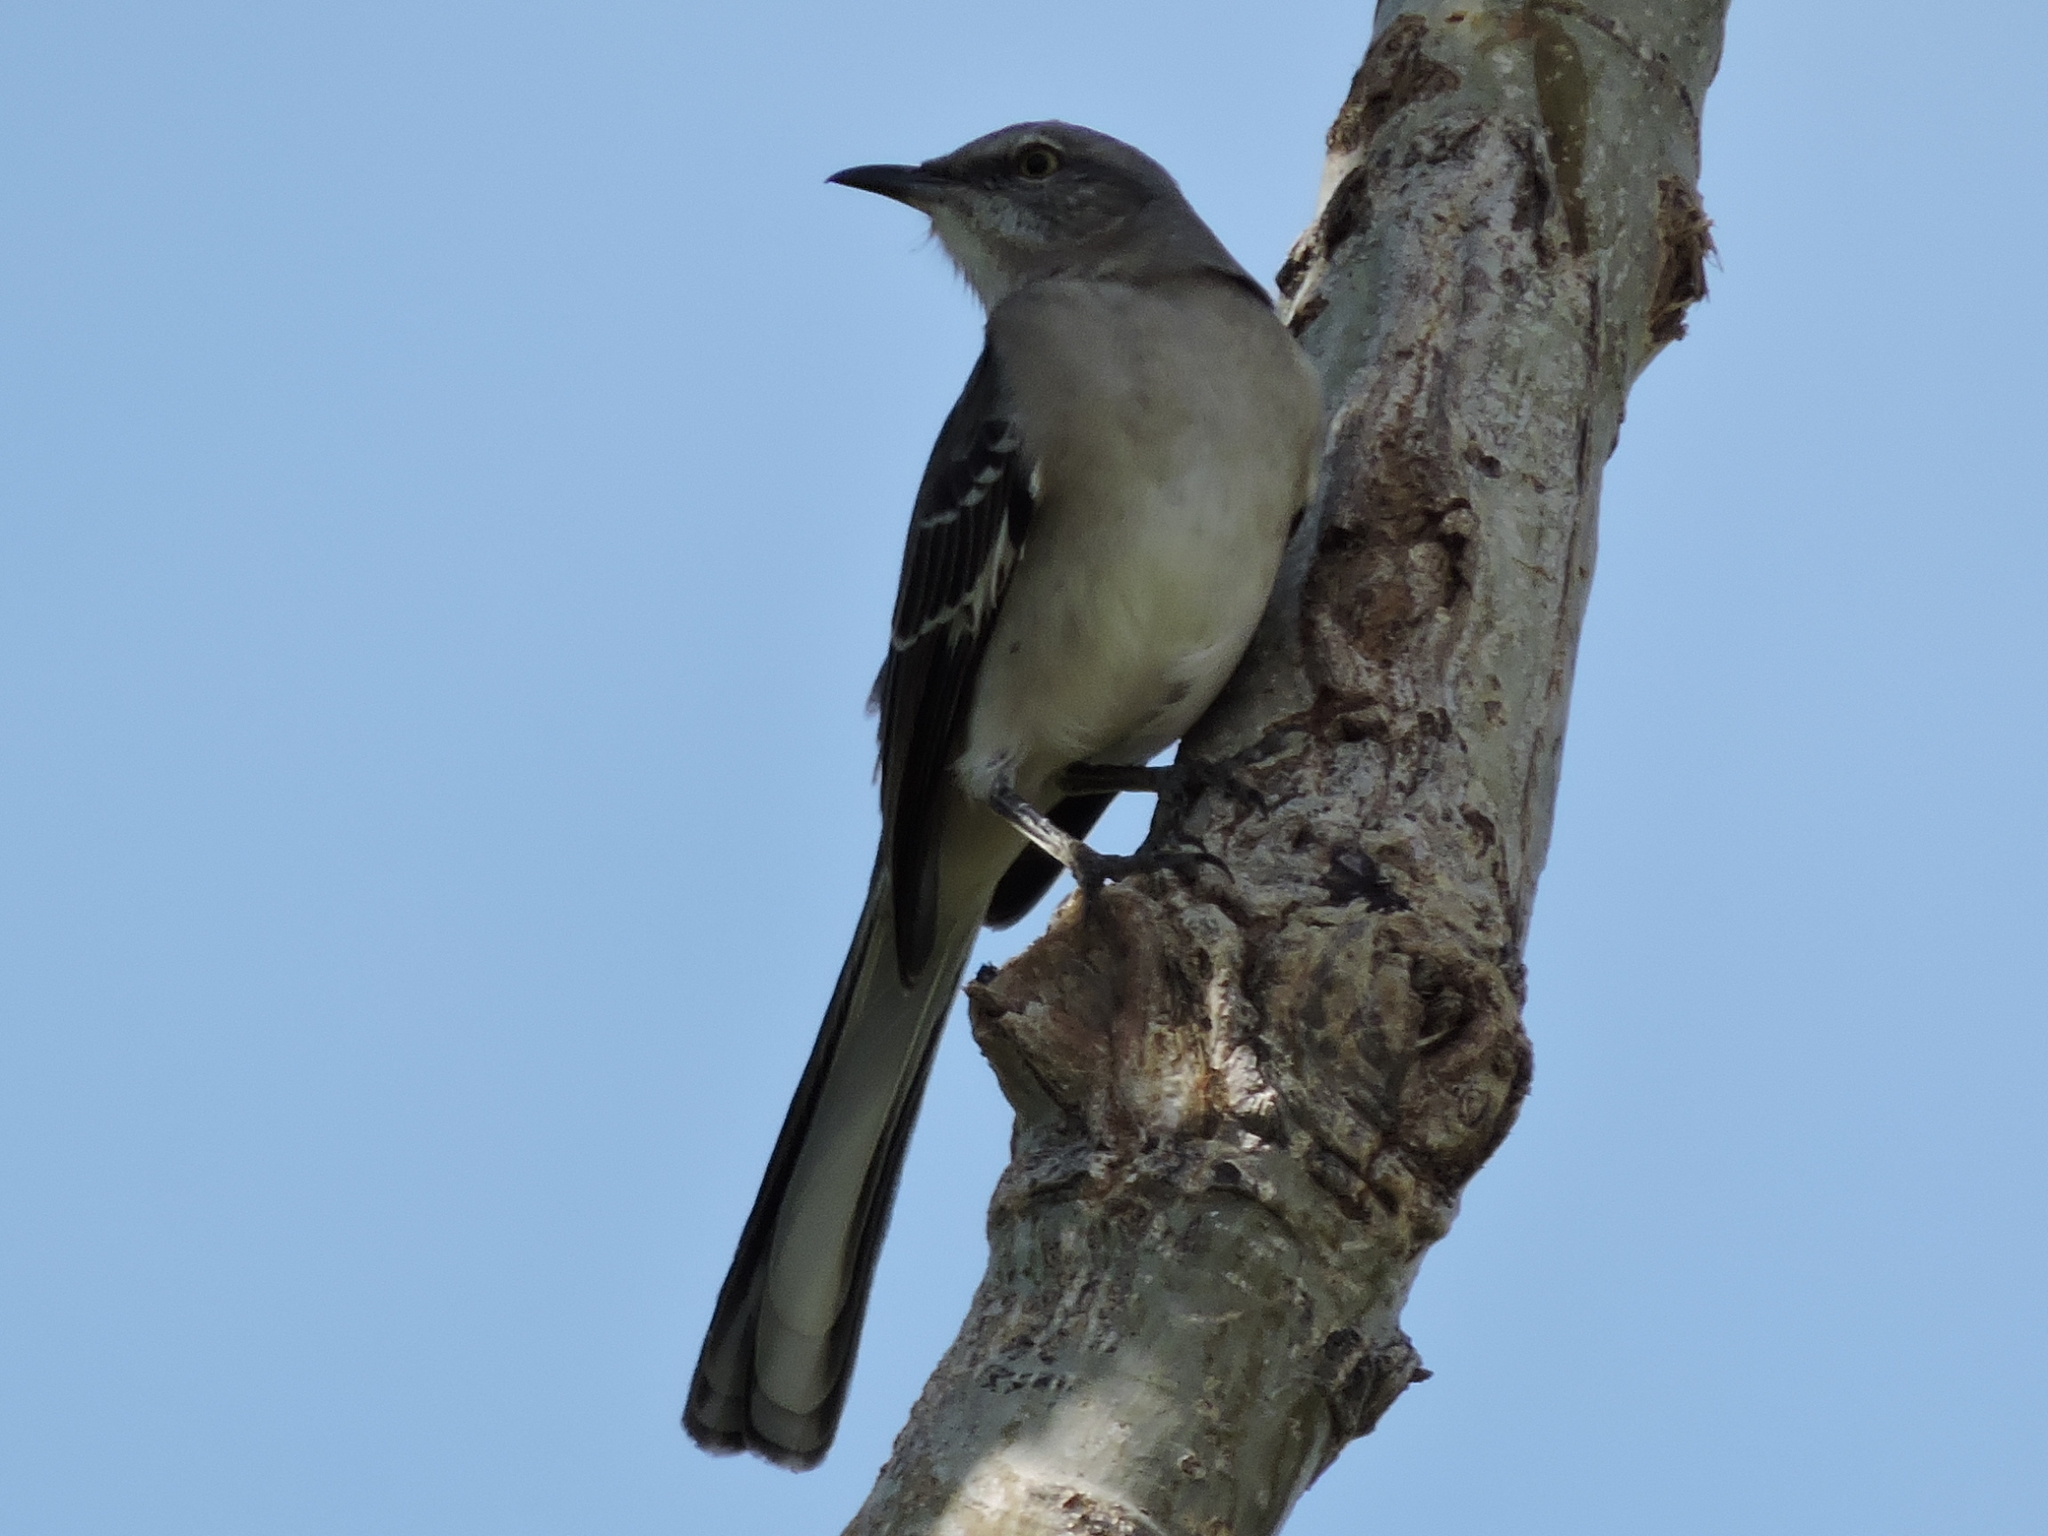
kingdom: Animalia
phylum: Chordata
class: Aves
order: Passeriformes
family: Mimidae
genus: Mimus
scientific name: Mimus polyglottos
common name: Northern mockingbird
